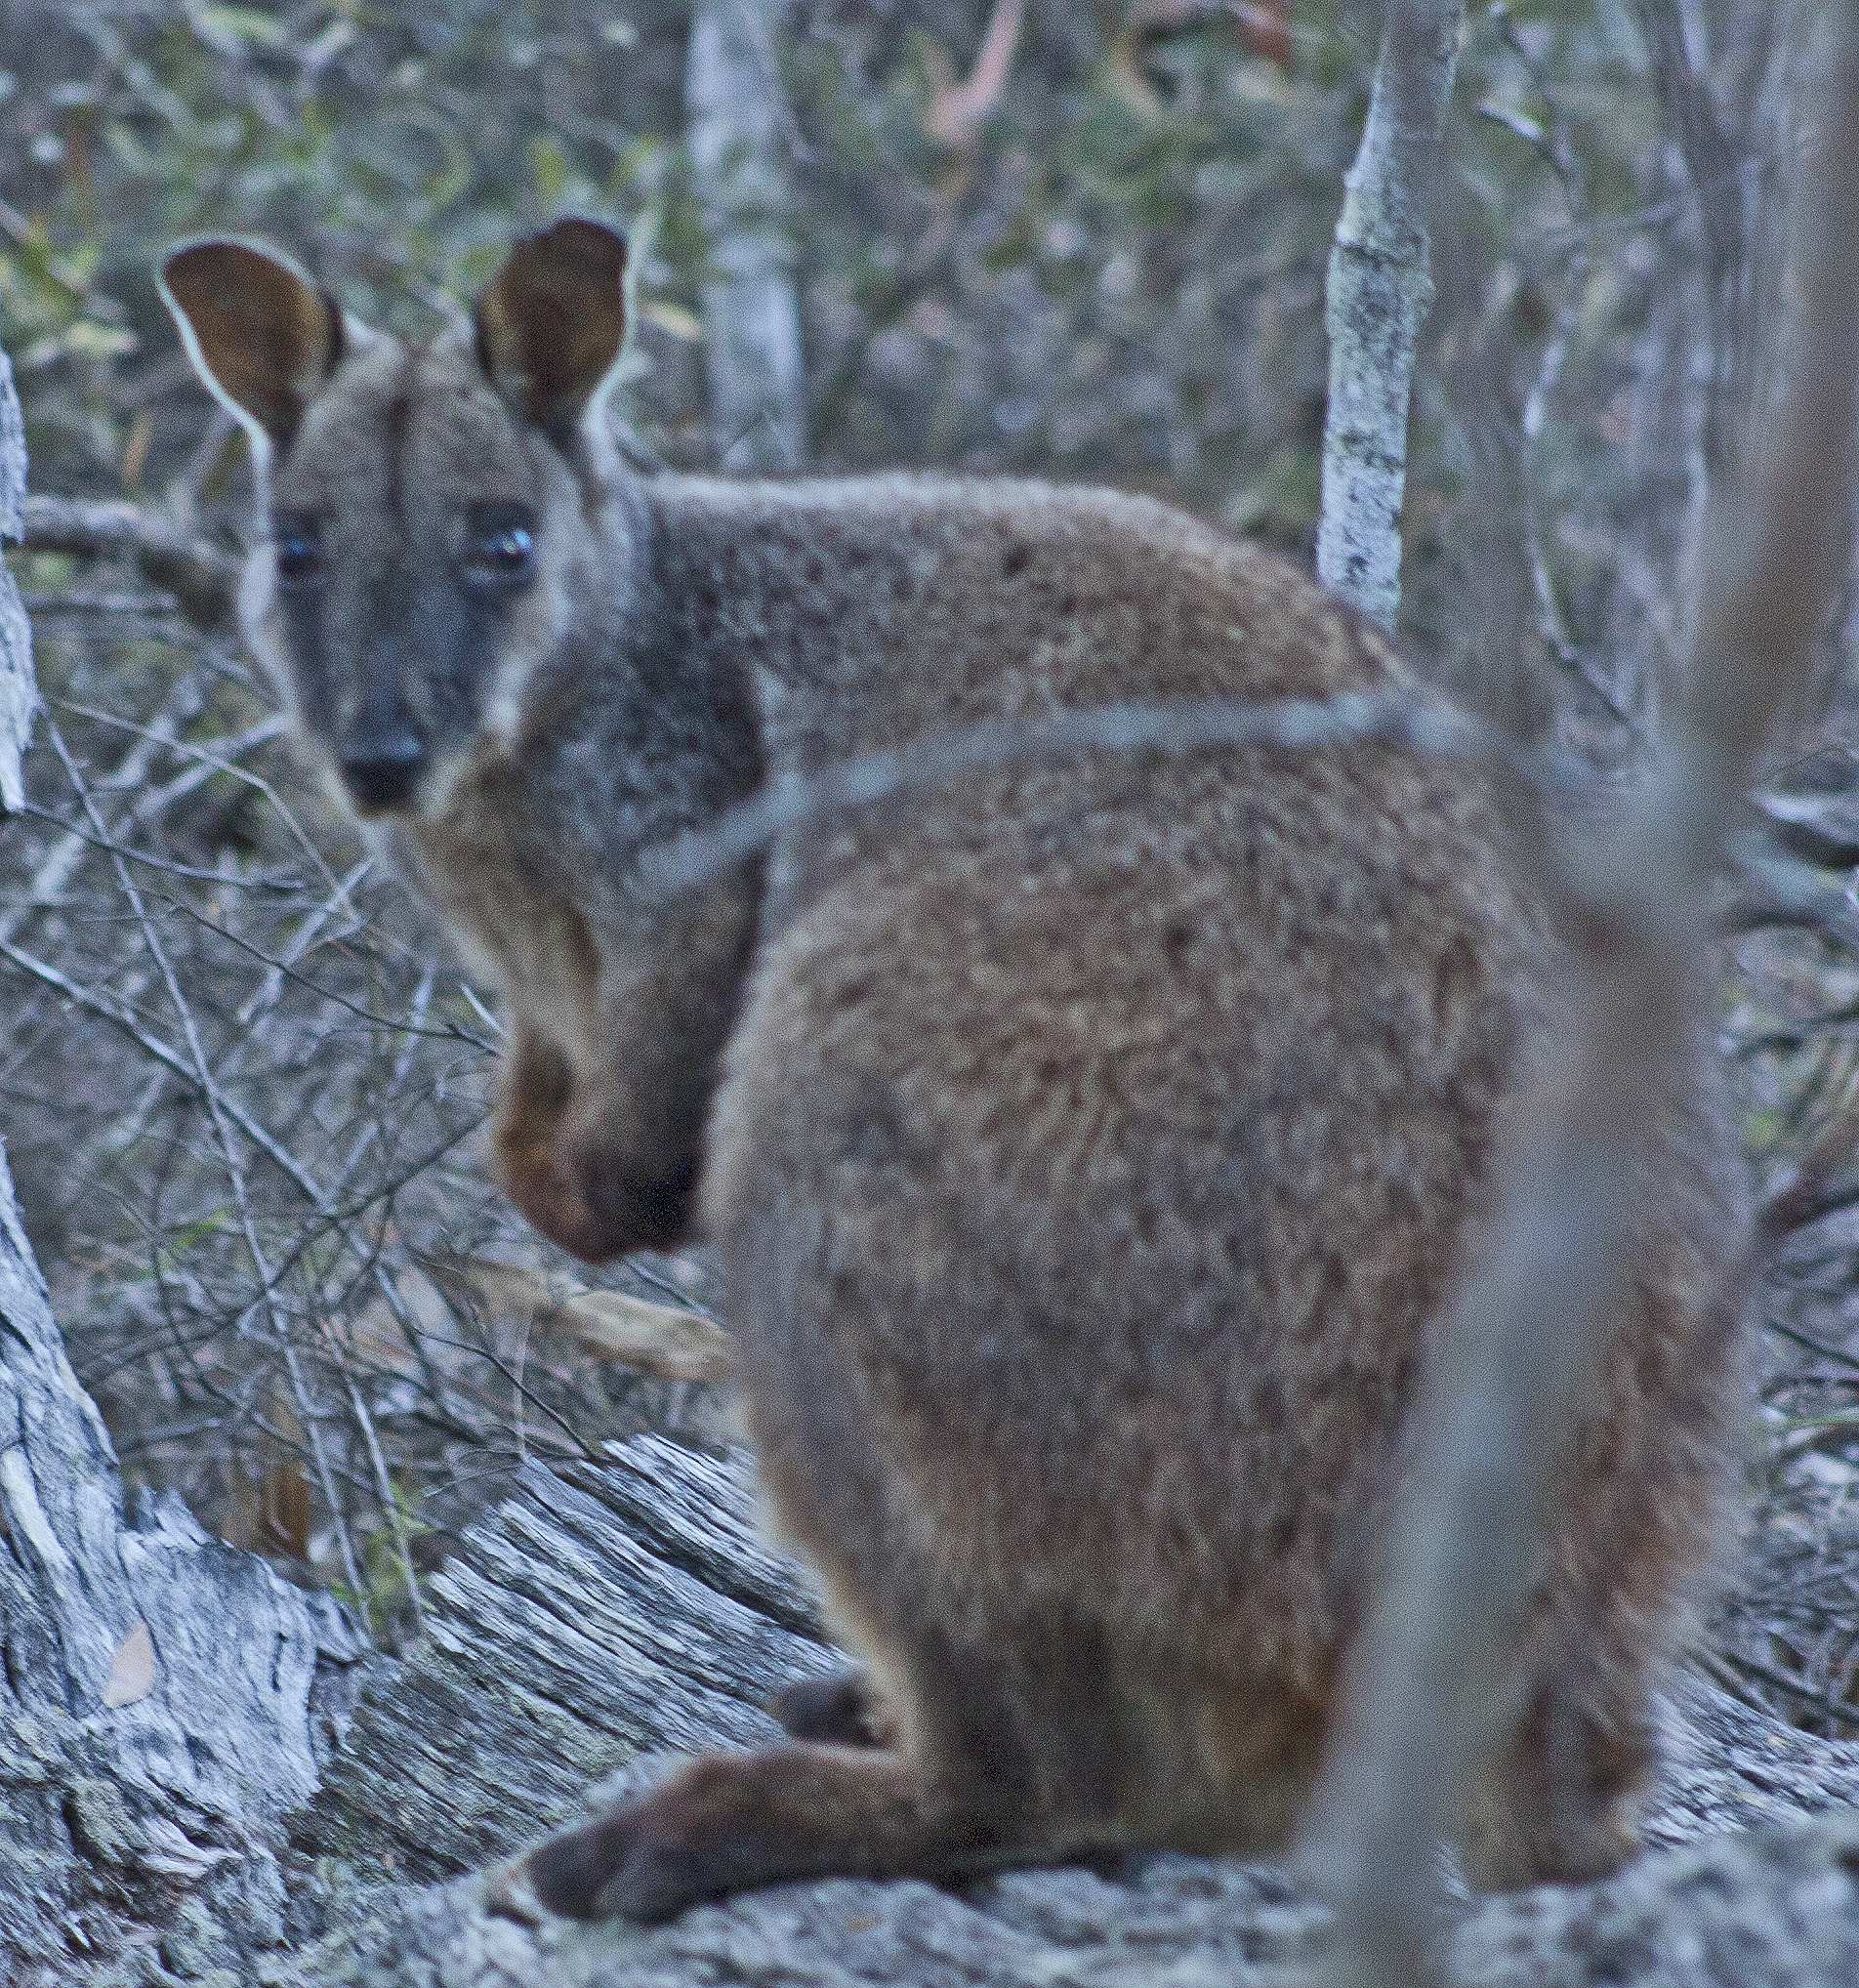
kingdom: Animalia
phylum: Chordata
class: Mammalia
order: Diprotodontia
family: Macropodidae
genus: Petrogale
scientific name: Petrogale penicillata
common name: Brush-tailed rock-wallaby
